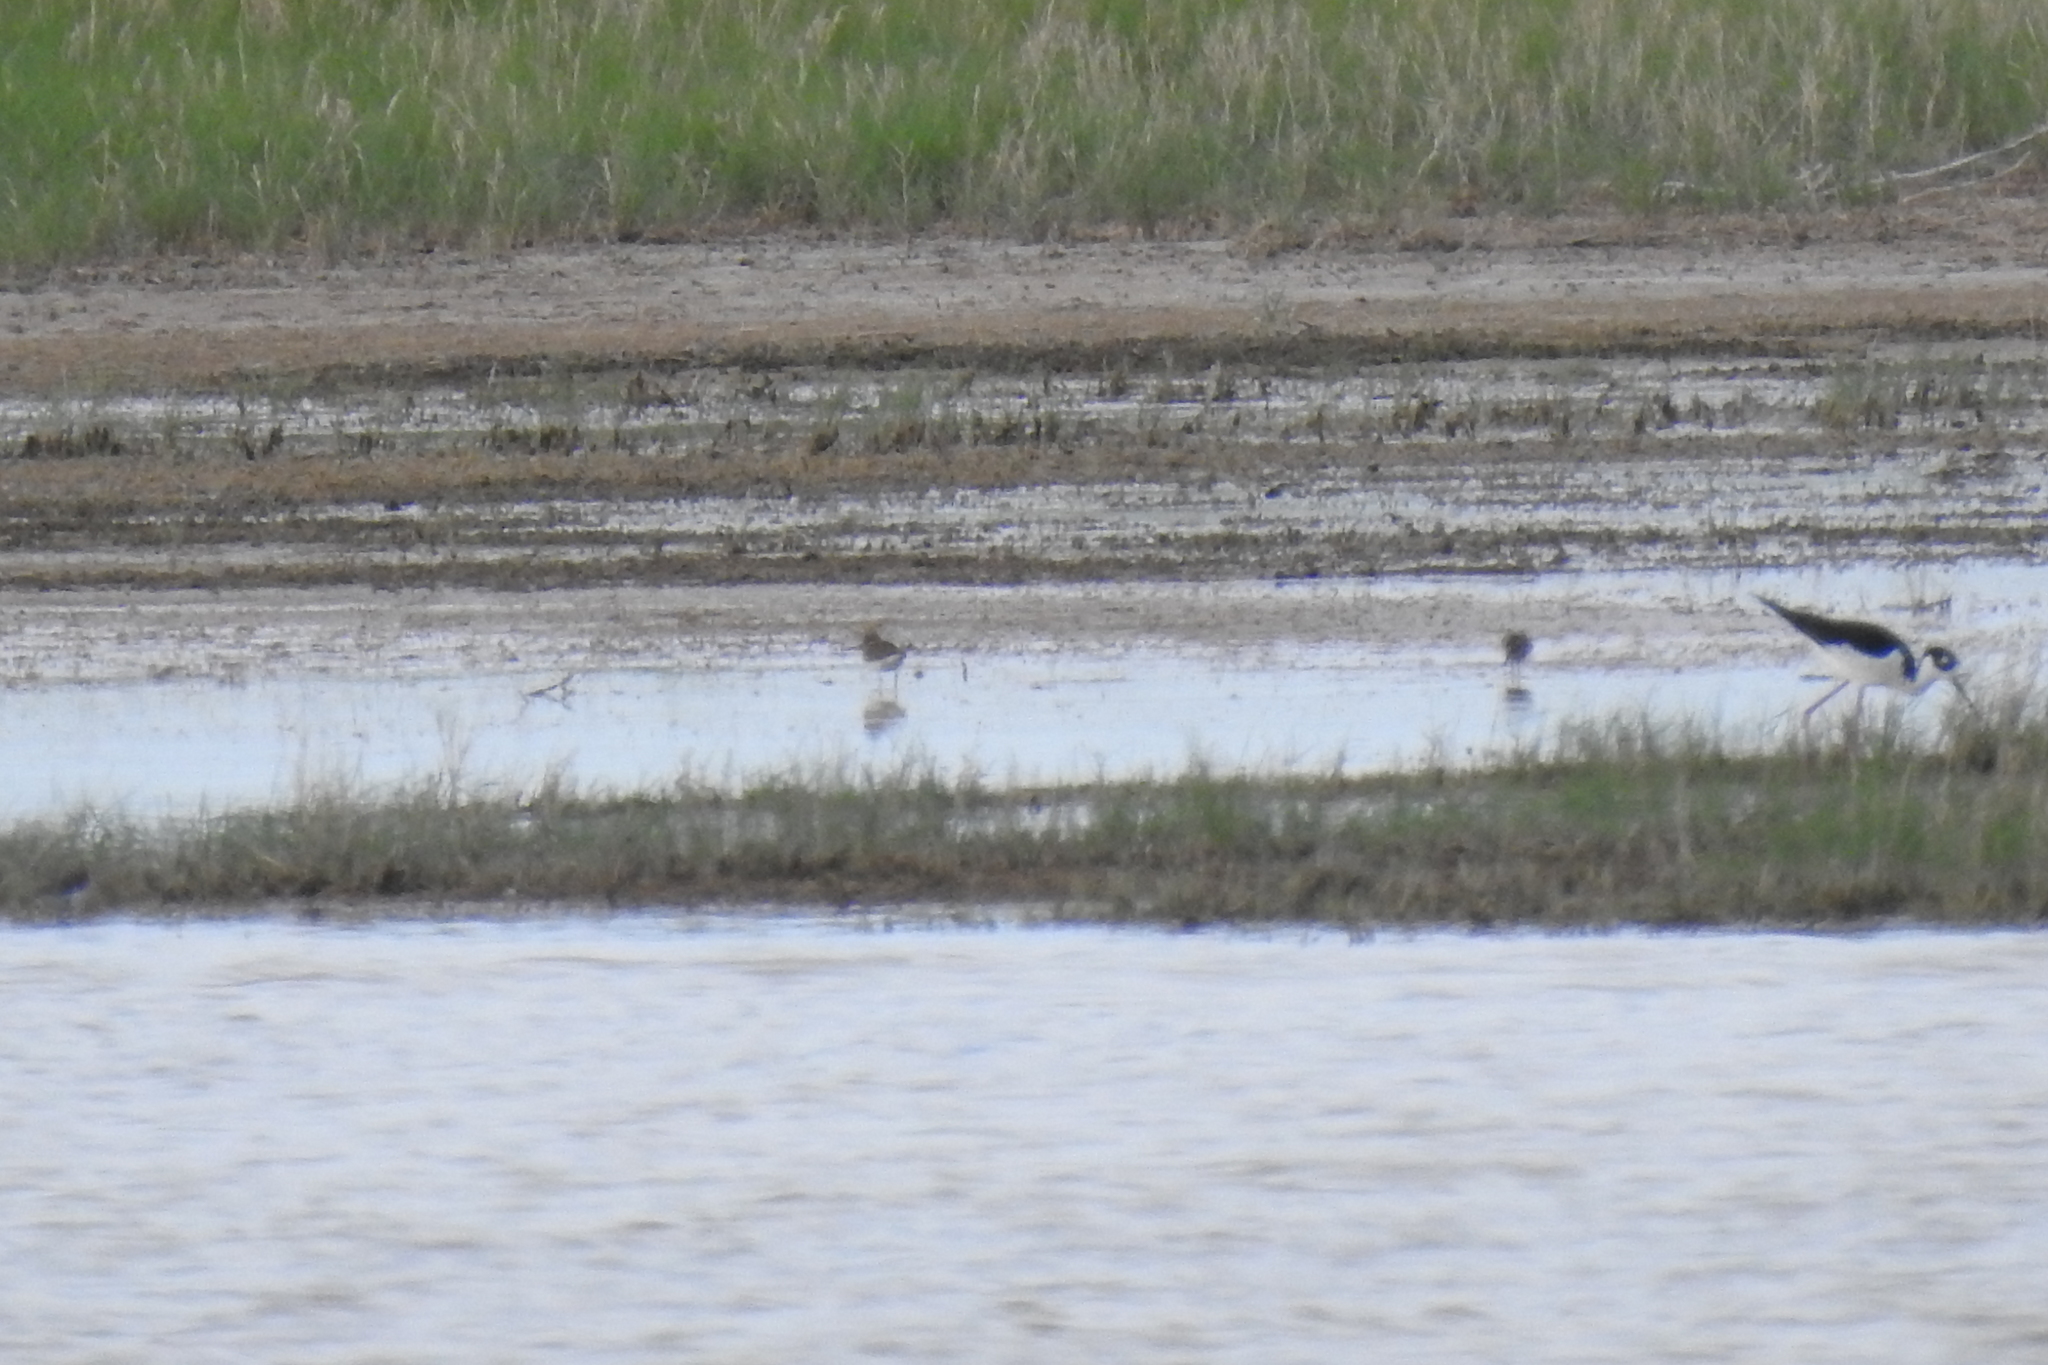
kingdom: Animalia
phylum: Chordata
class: Aves
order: Charadriiformes
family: Recurvirostridae
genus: Himantopus
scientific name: Himantopus mexicanus
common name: Black-necked stilt
